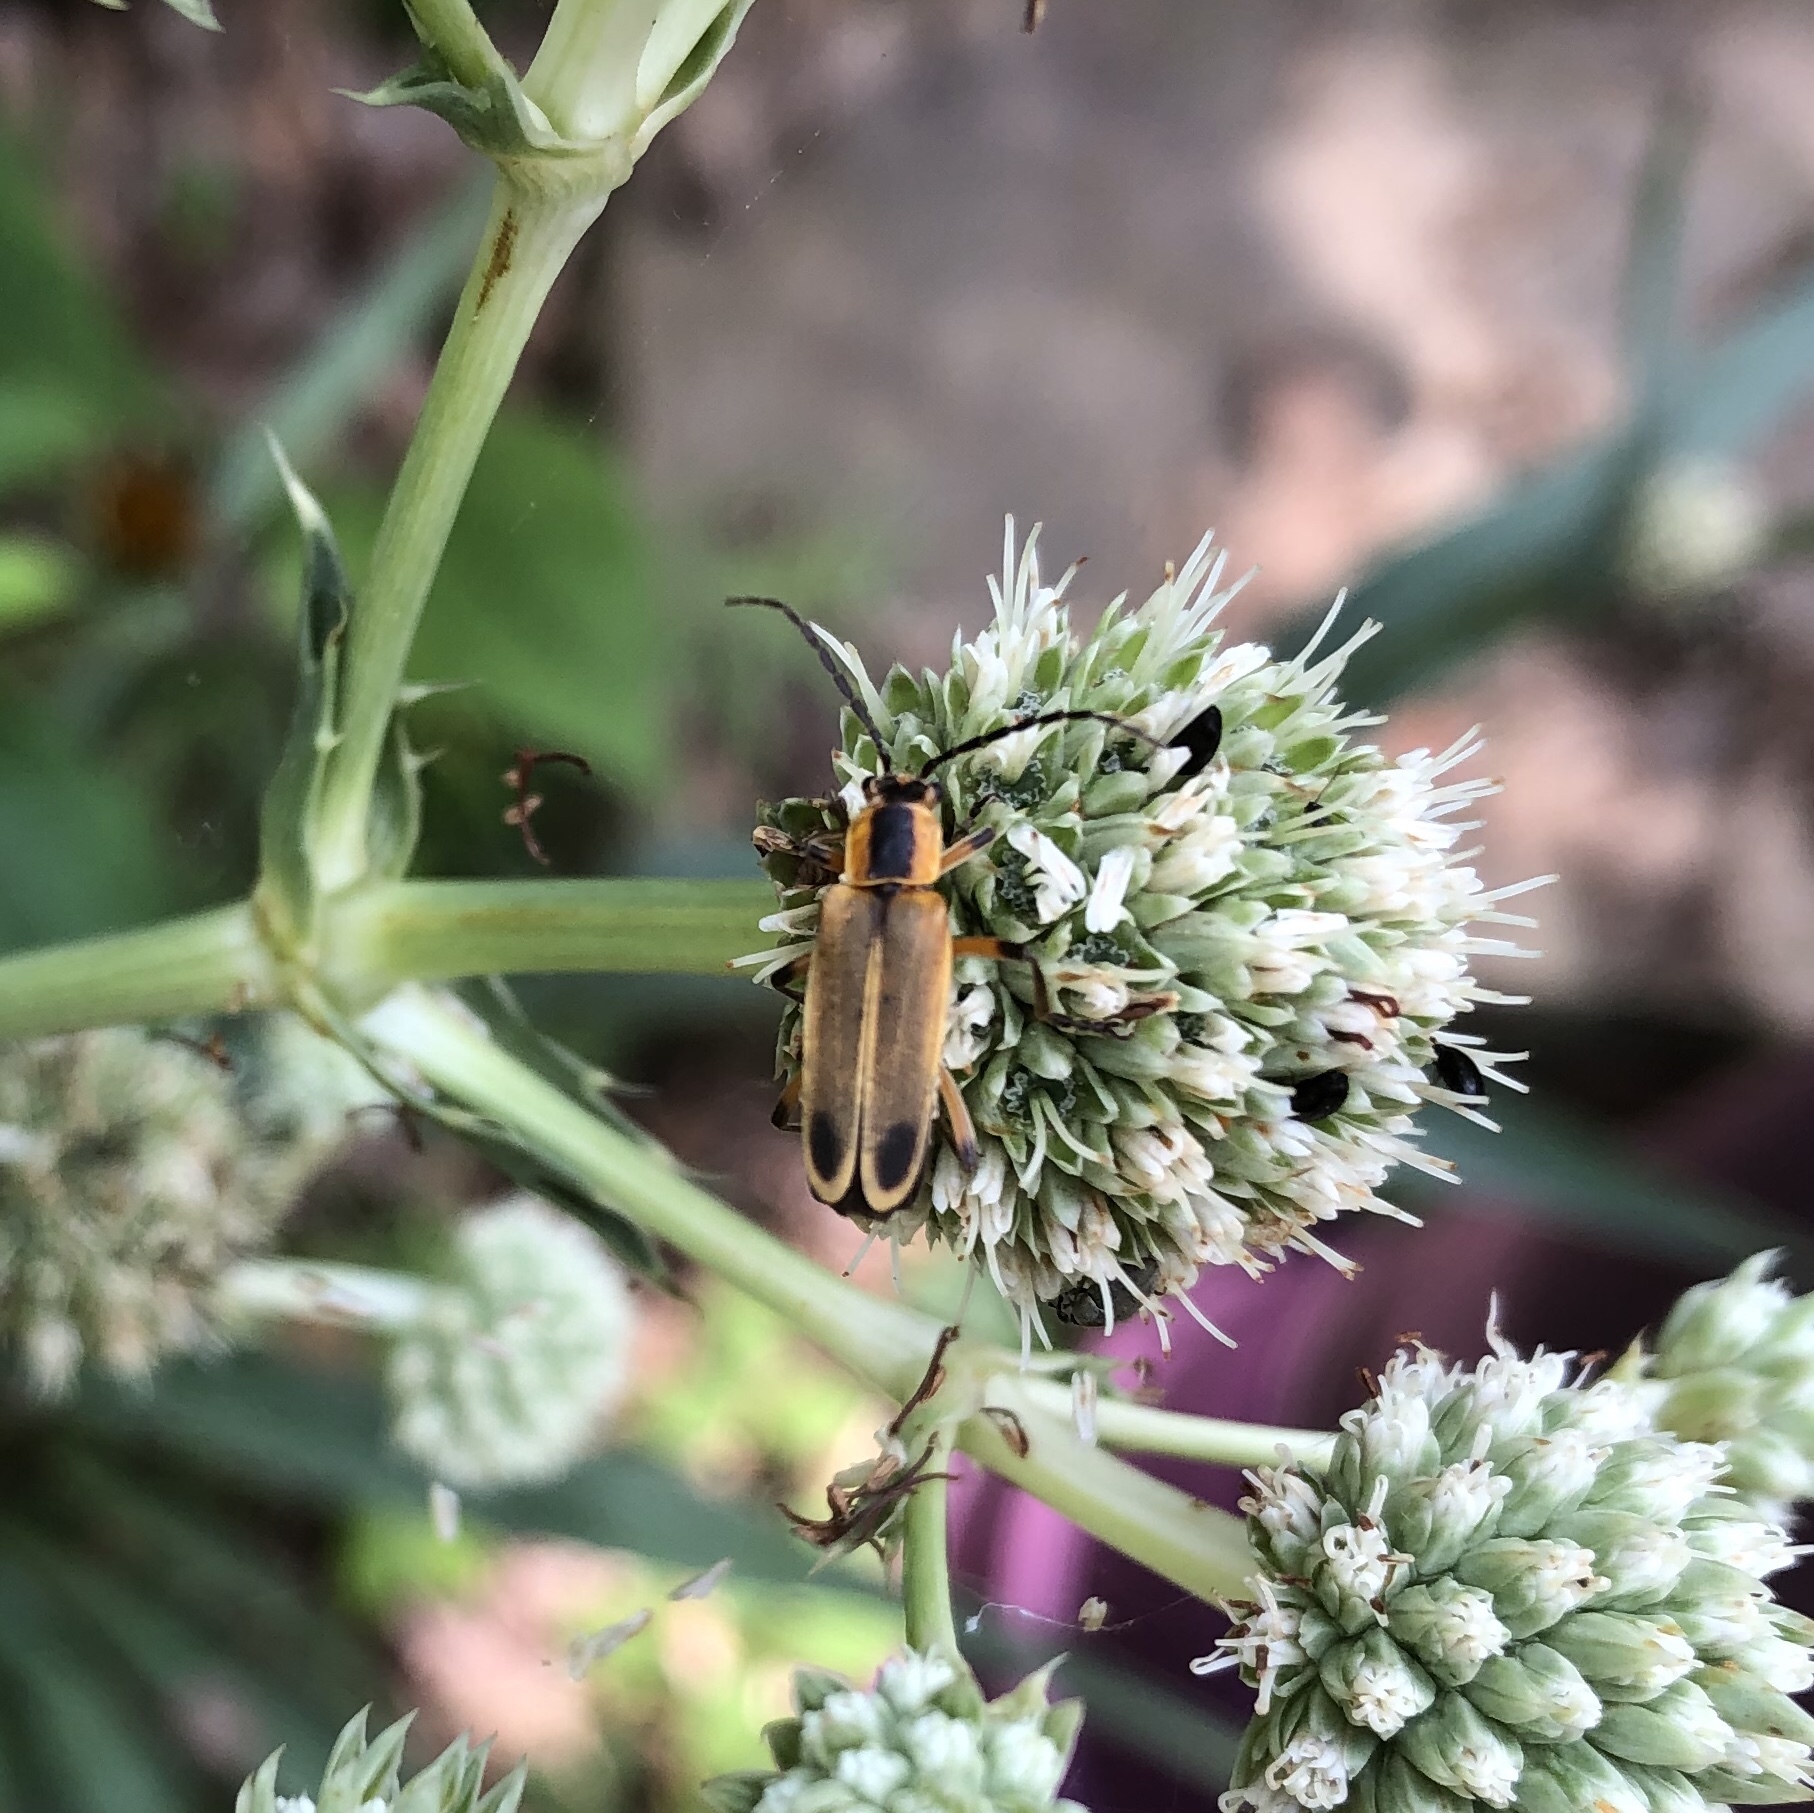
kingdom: Animalia
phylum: Arthropoda
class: Insecta
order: Coleoptera
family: Cantharidae
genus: Chauliognathus
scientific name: Chauliognathus marginatus
